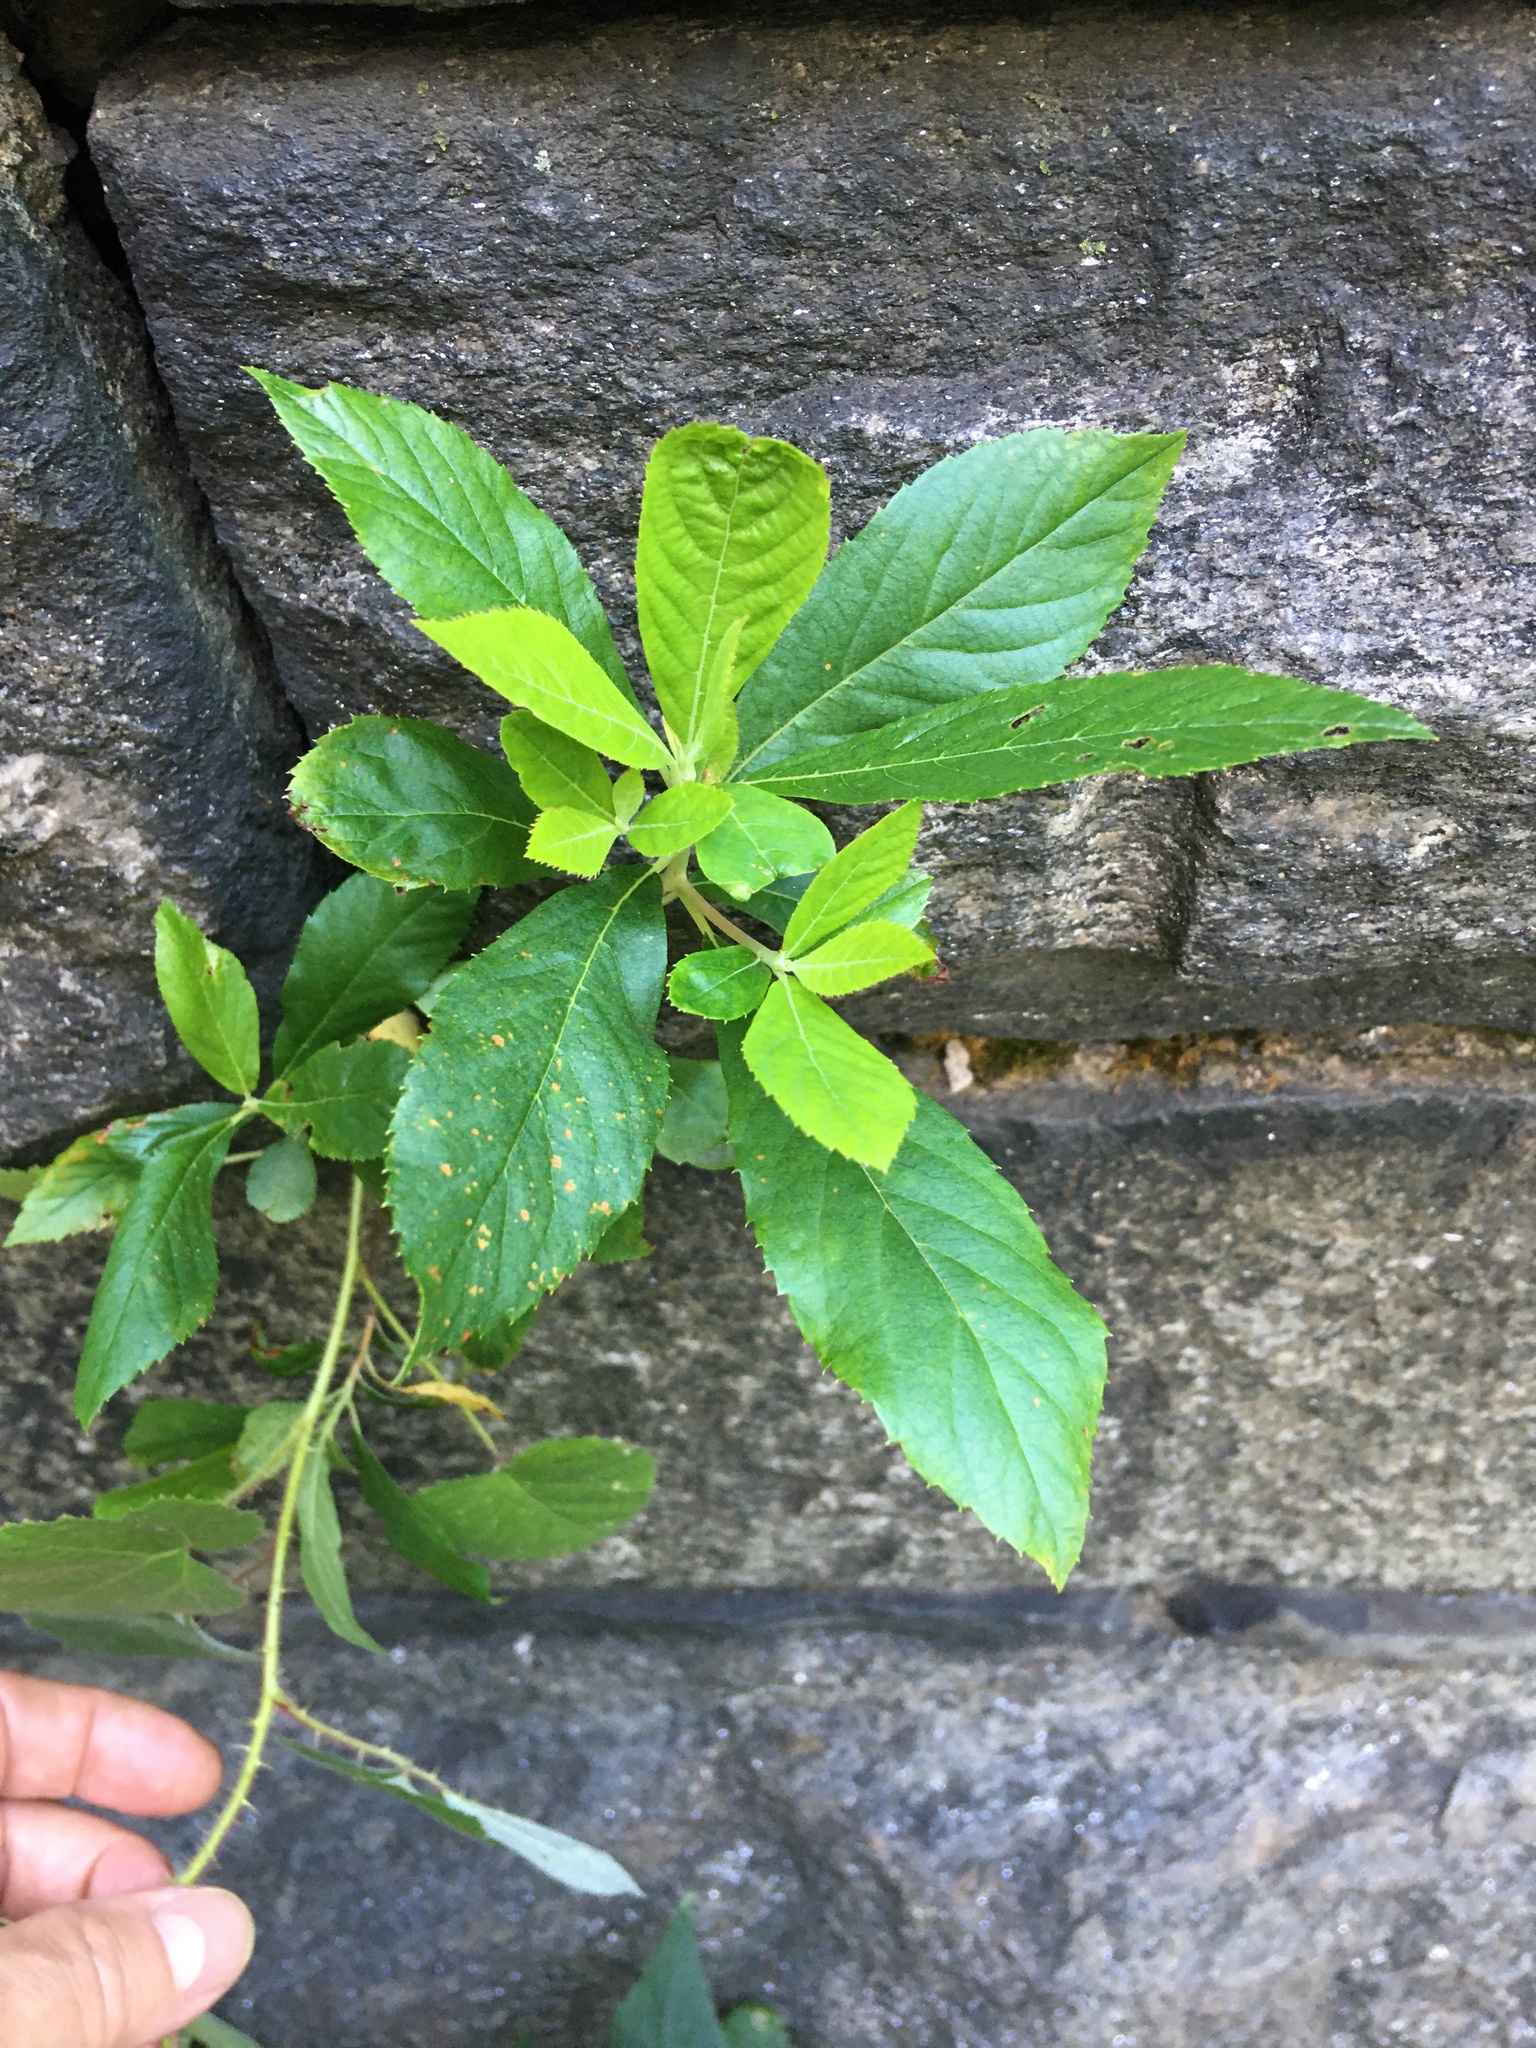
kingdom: Plantae
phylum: Tracheophyta
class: Magnoliopsida
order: Ericales
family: Clethraceae
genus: Clethra
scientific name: Clethra alnifolia
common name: Sweet pepperbush
